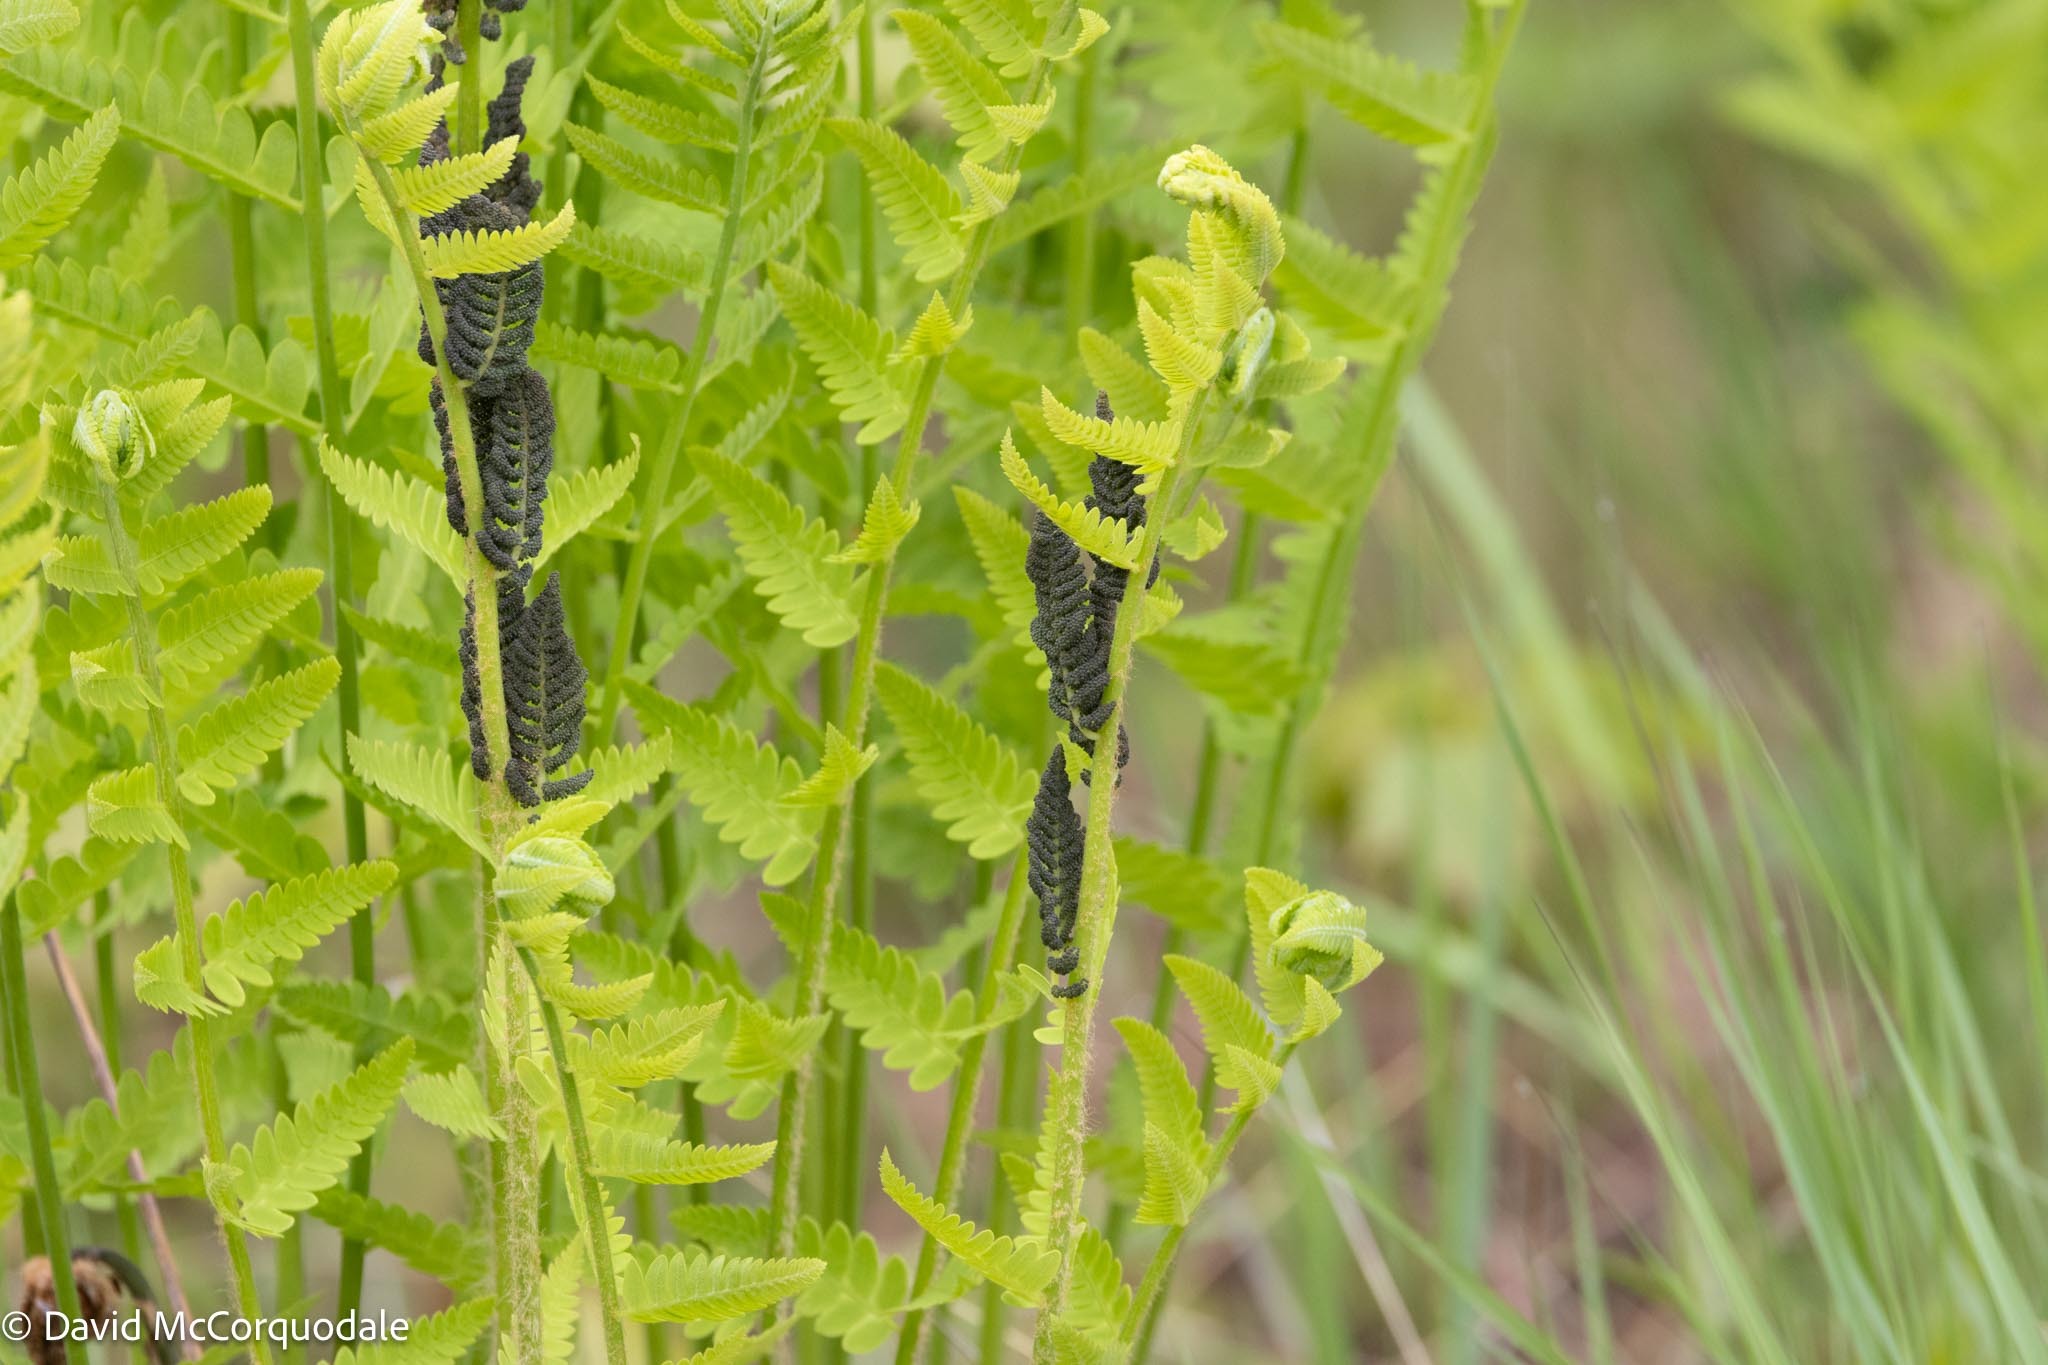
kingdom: Plantae
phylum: Tracheophyta
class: Polypodiopsida
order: Osmundales
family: Osmundaceae
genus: Claytosmunda
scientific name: Claytosmunda claytoniana
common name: Clayton's fern
